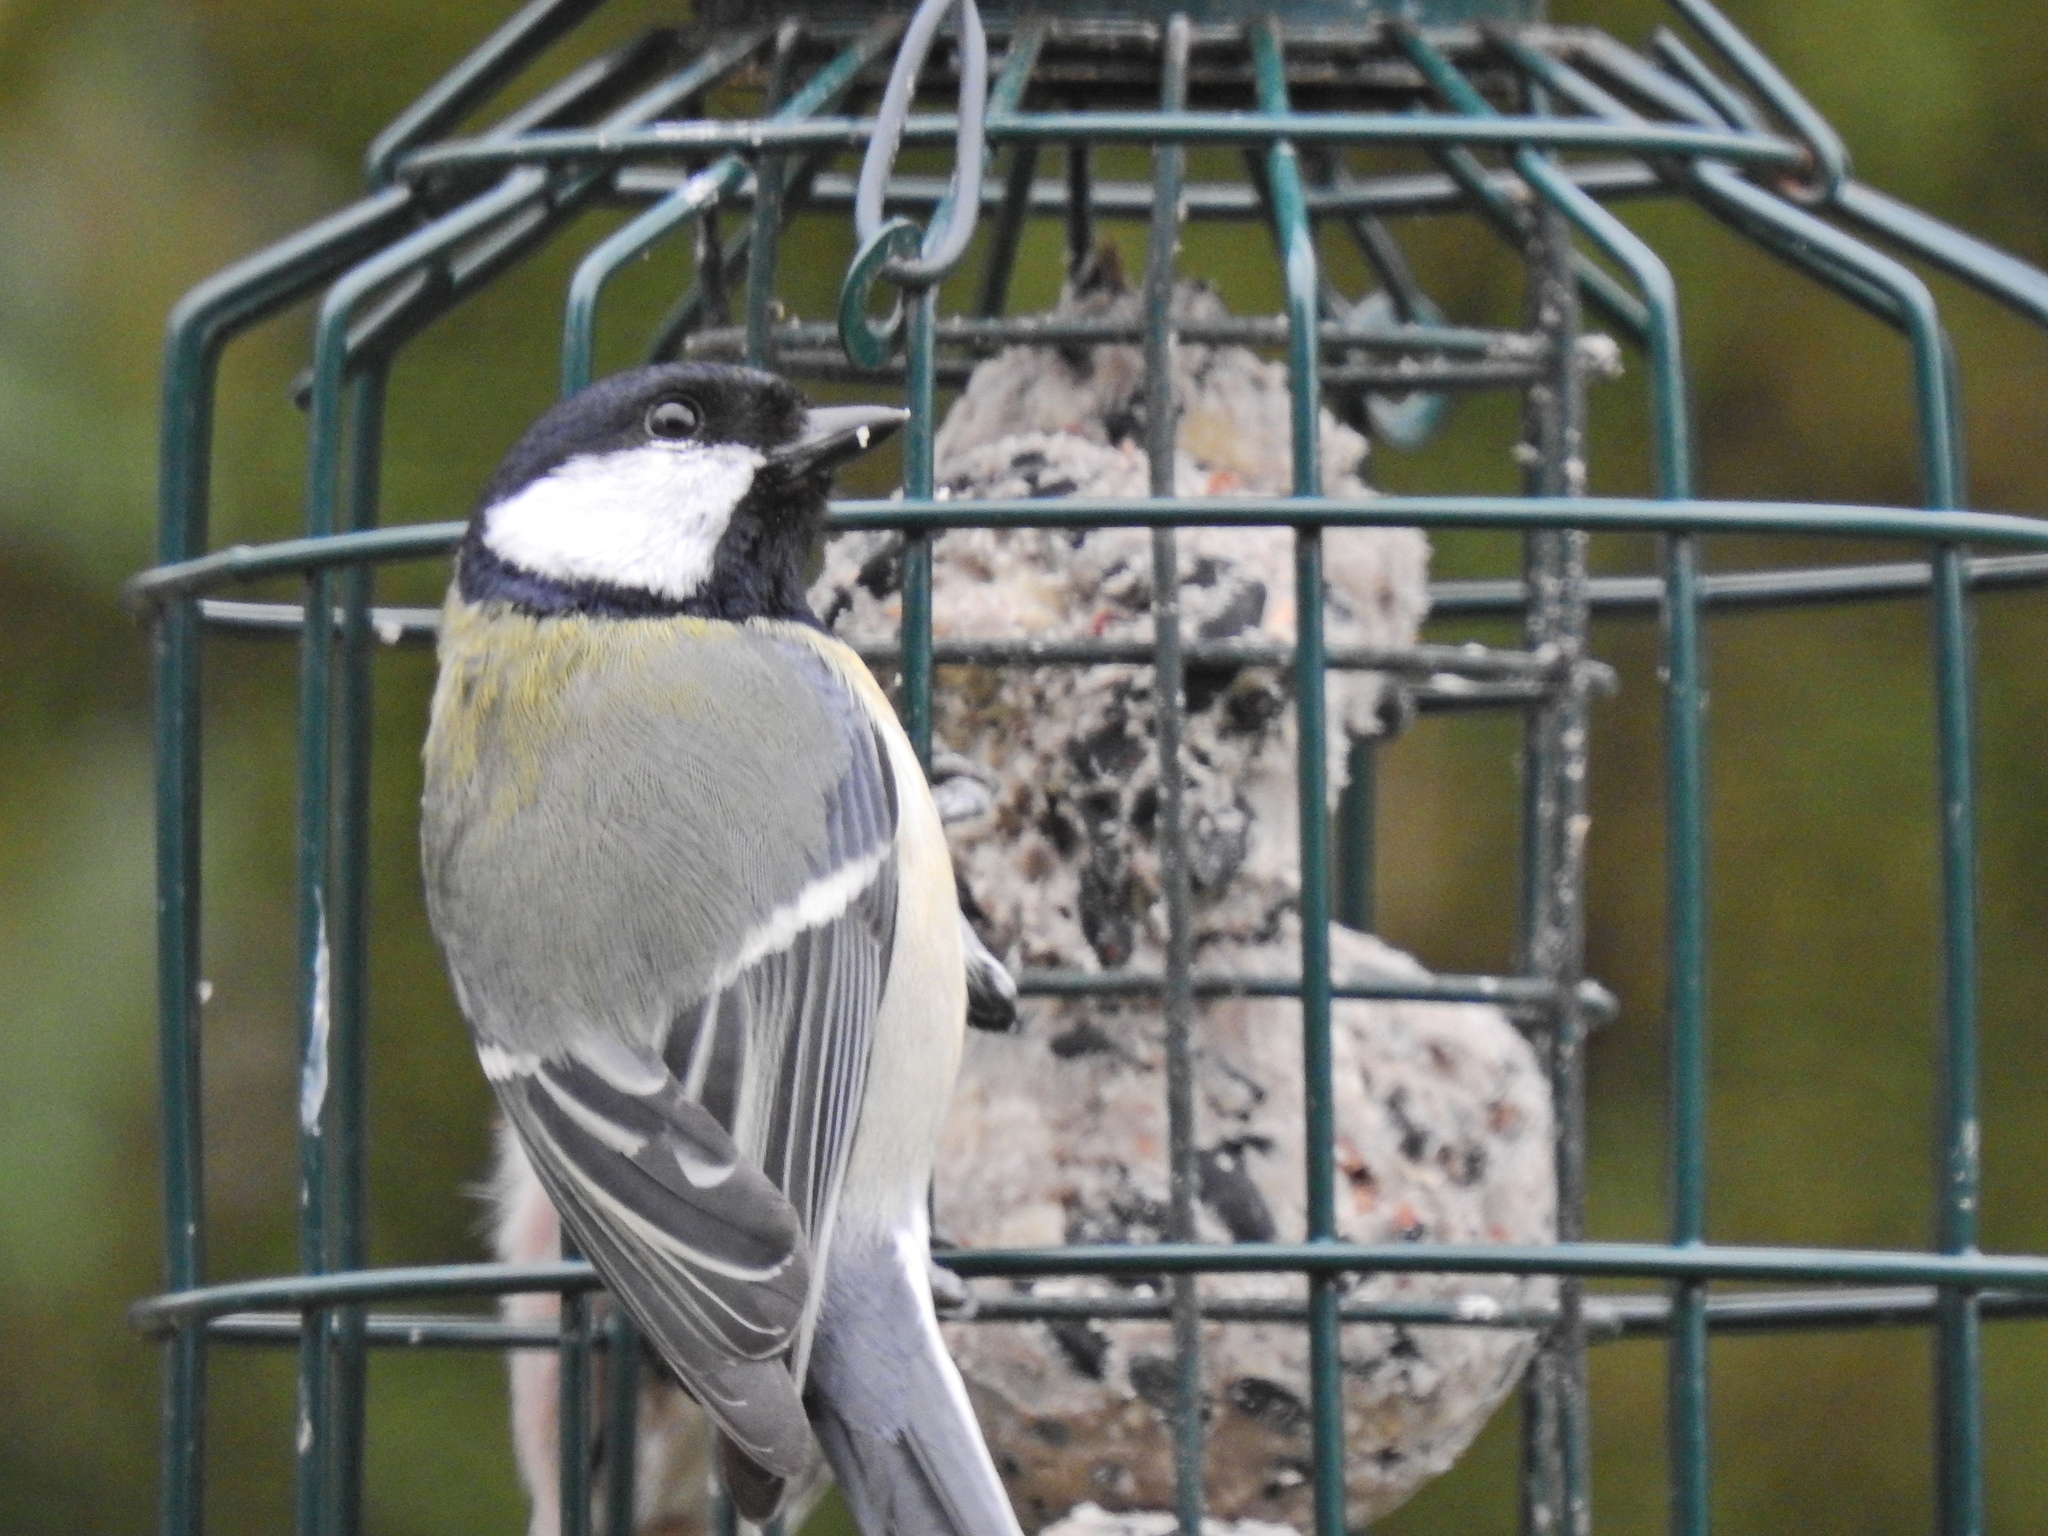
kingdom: Animalia
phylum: Chordata
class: Aves
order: Passeriformes
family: Paridae
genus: Parus
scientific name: Parus major
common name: Great tit
